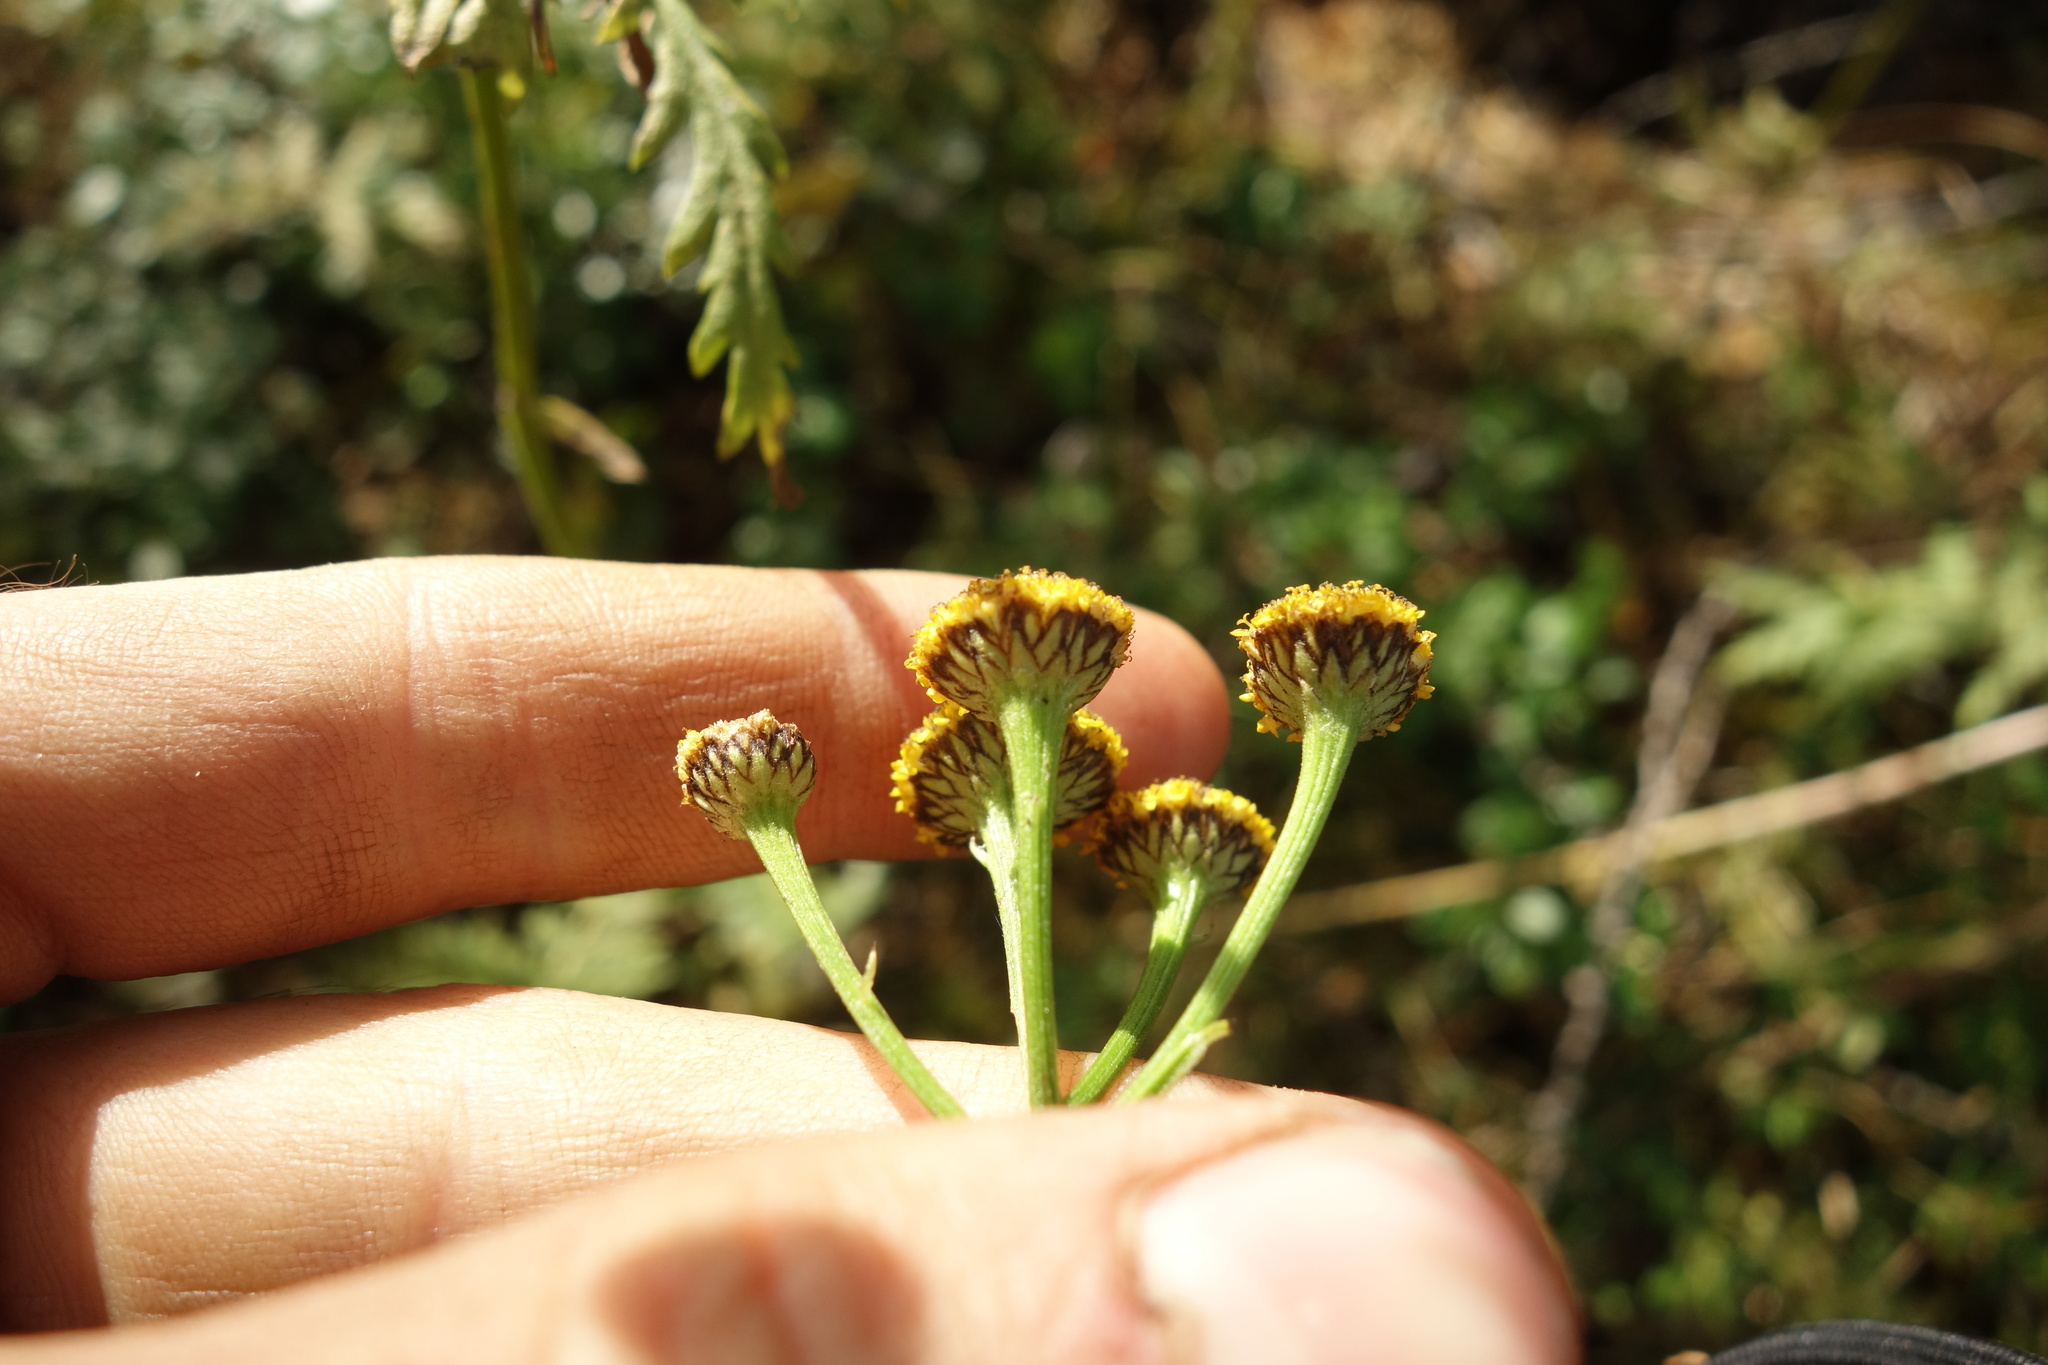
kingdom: Plantae
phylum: Tracheophyta
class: Magnoliopsida
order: Asterales
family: Asteraceae
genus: Tanacetum
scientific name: Tanacetum vulgare
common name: Common tansy
